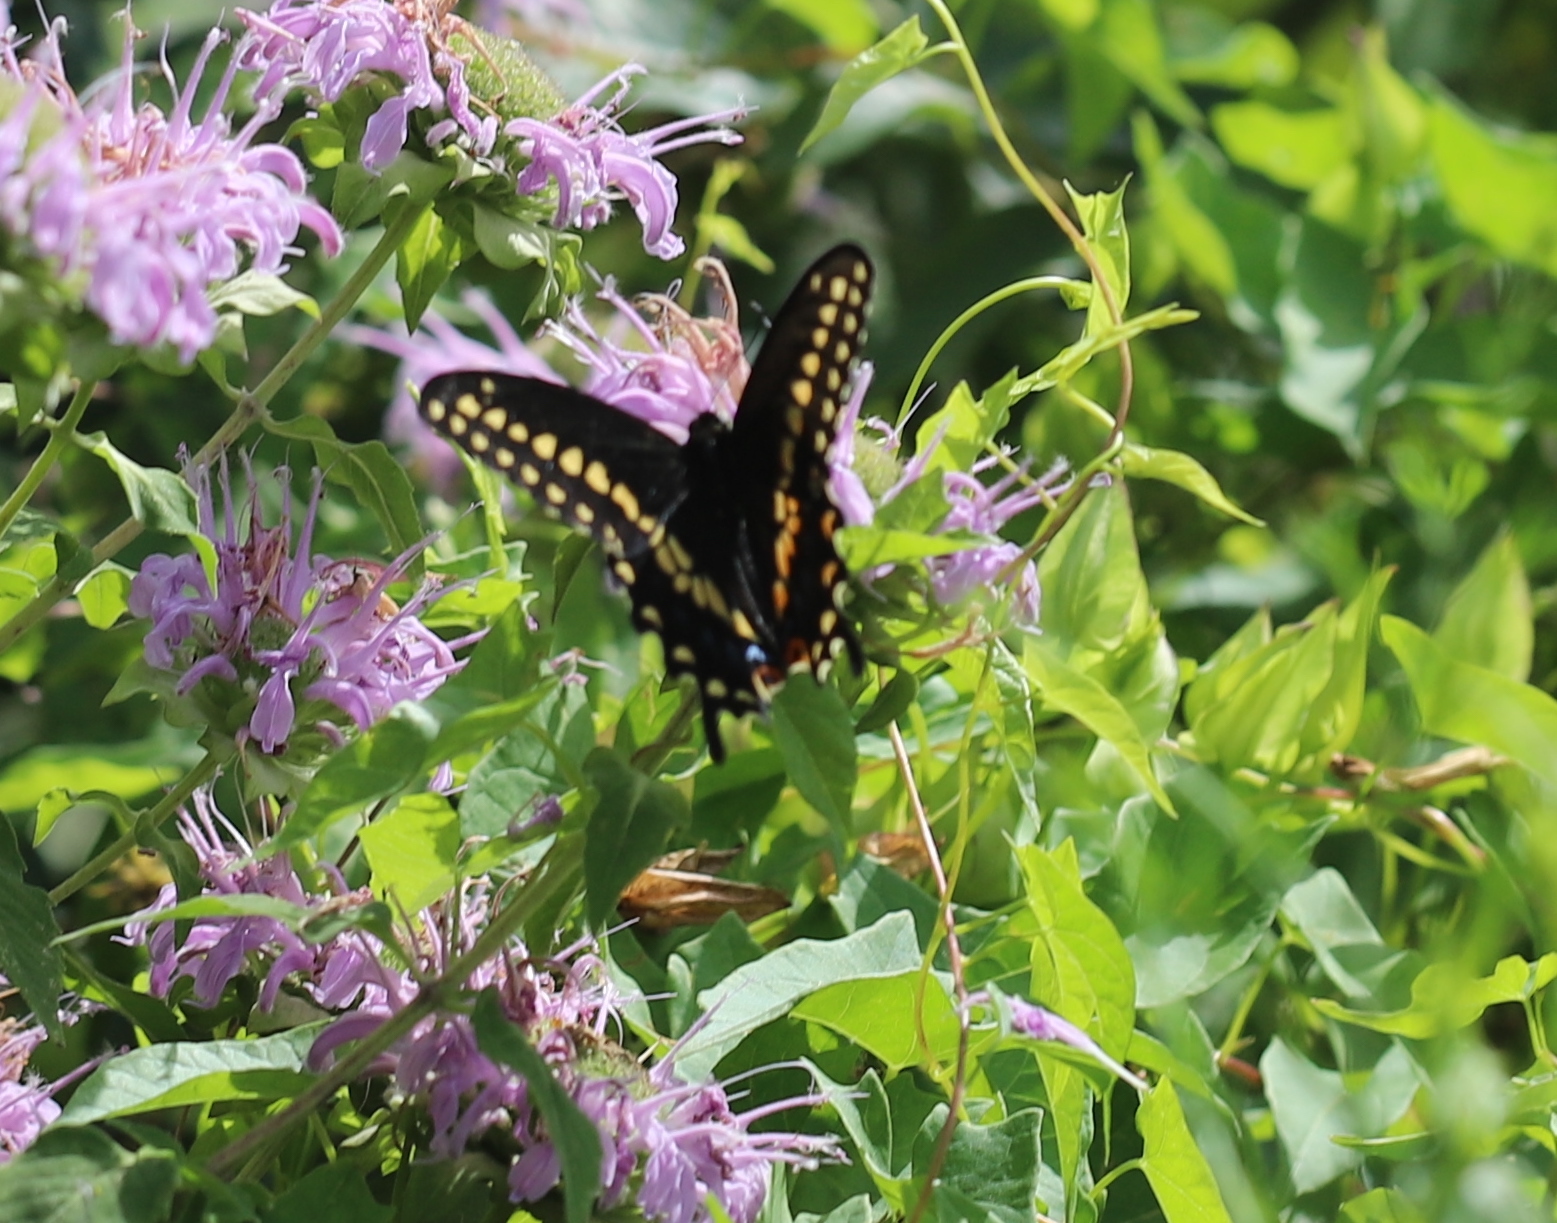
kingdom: Animalia
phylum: Arthropoda
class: Insecta
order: Lepidoptera
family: Papilionidae
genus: Papilio
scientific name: Papilio polyxenes
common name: Black swallowtail
